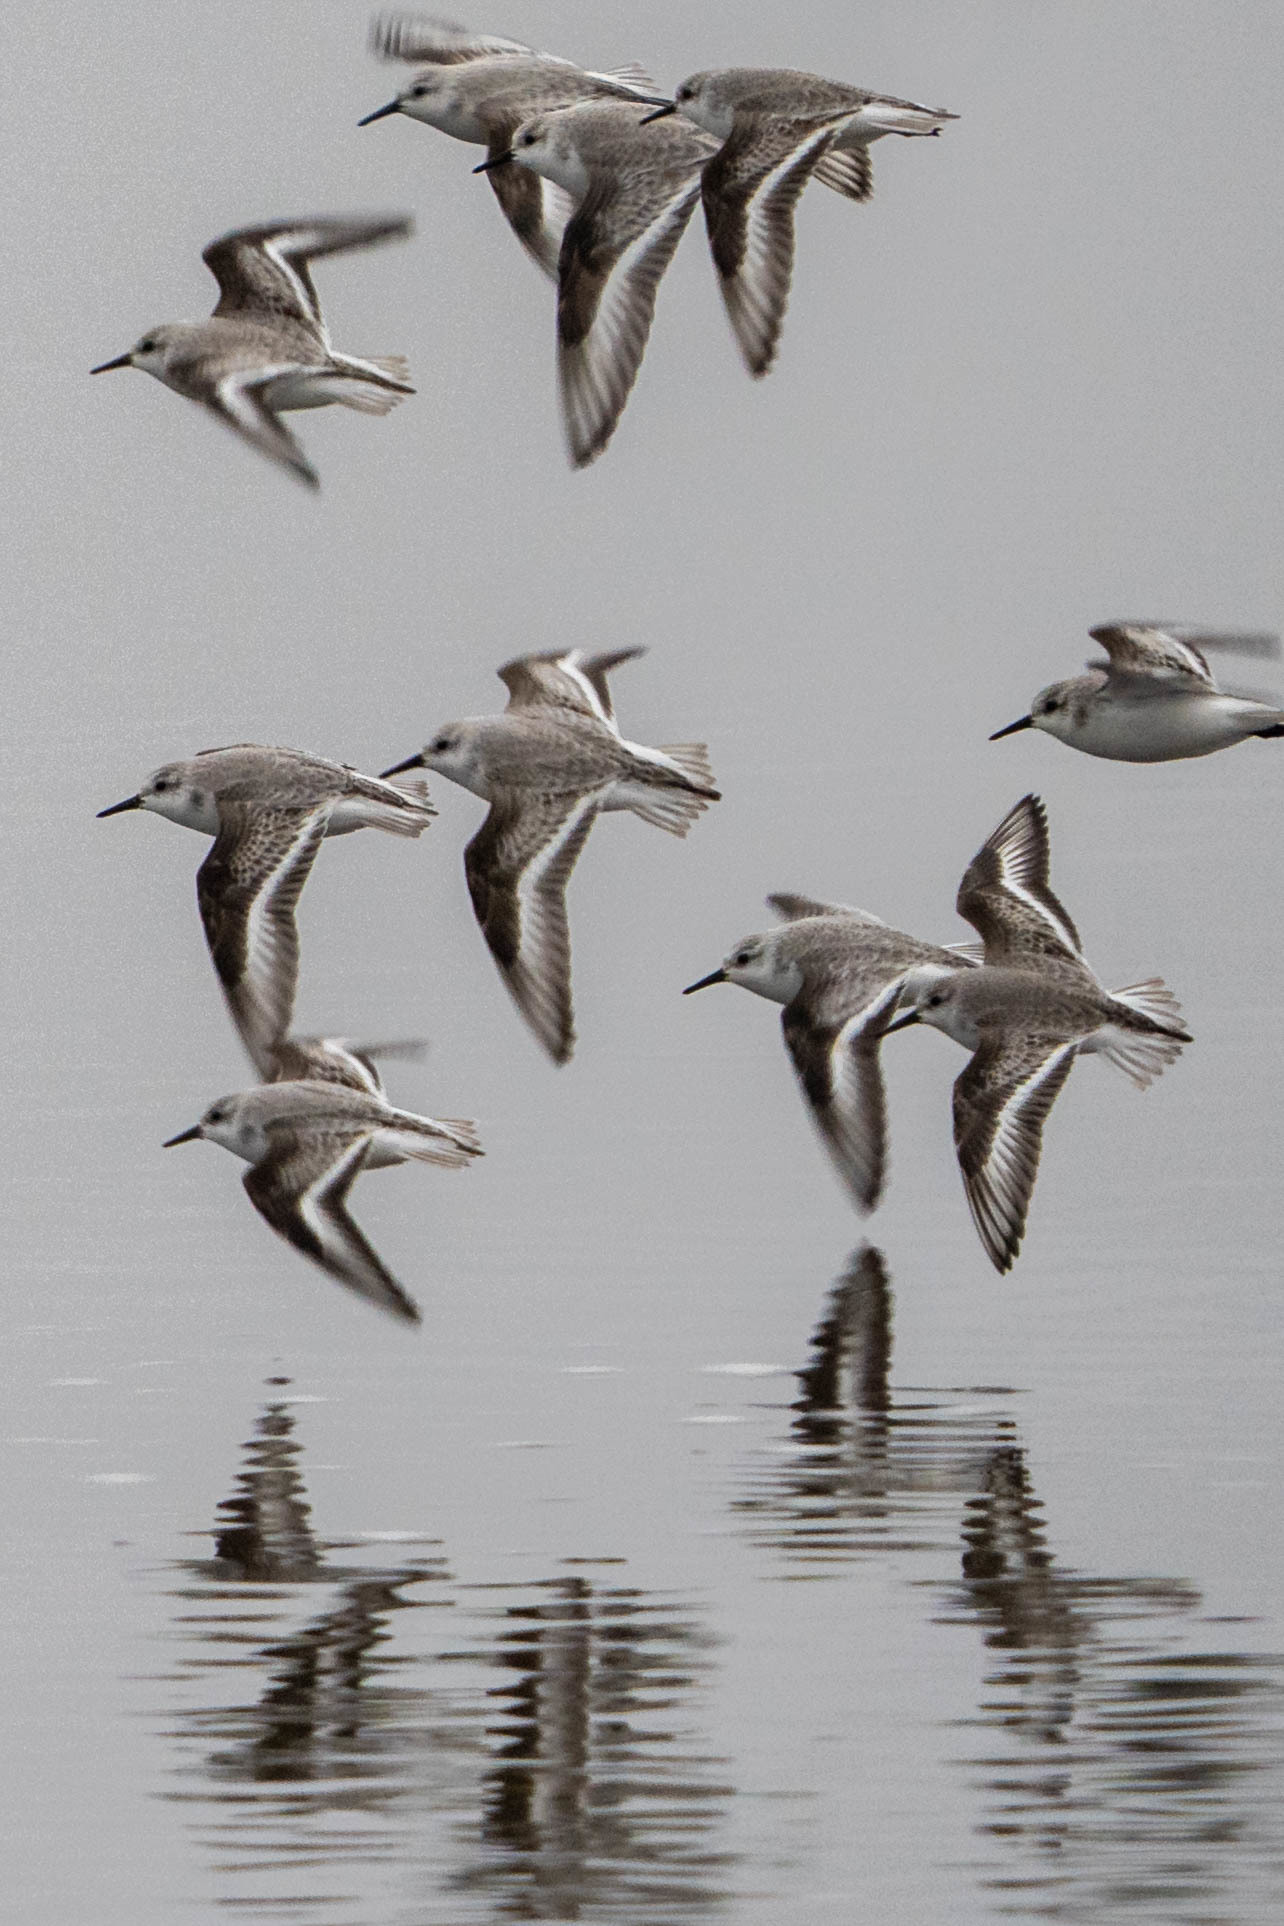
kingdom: Animalia
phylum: Chordata
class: Aves
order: Charadriiformes
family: Scolopacidae
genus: Calidris
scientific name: Calidris alba
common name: Sanderling
